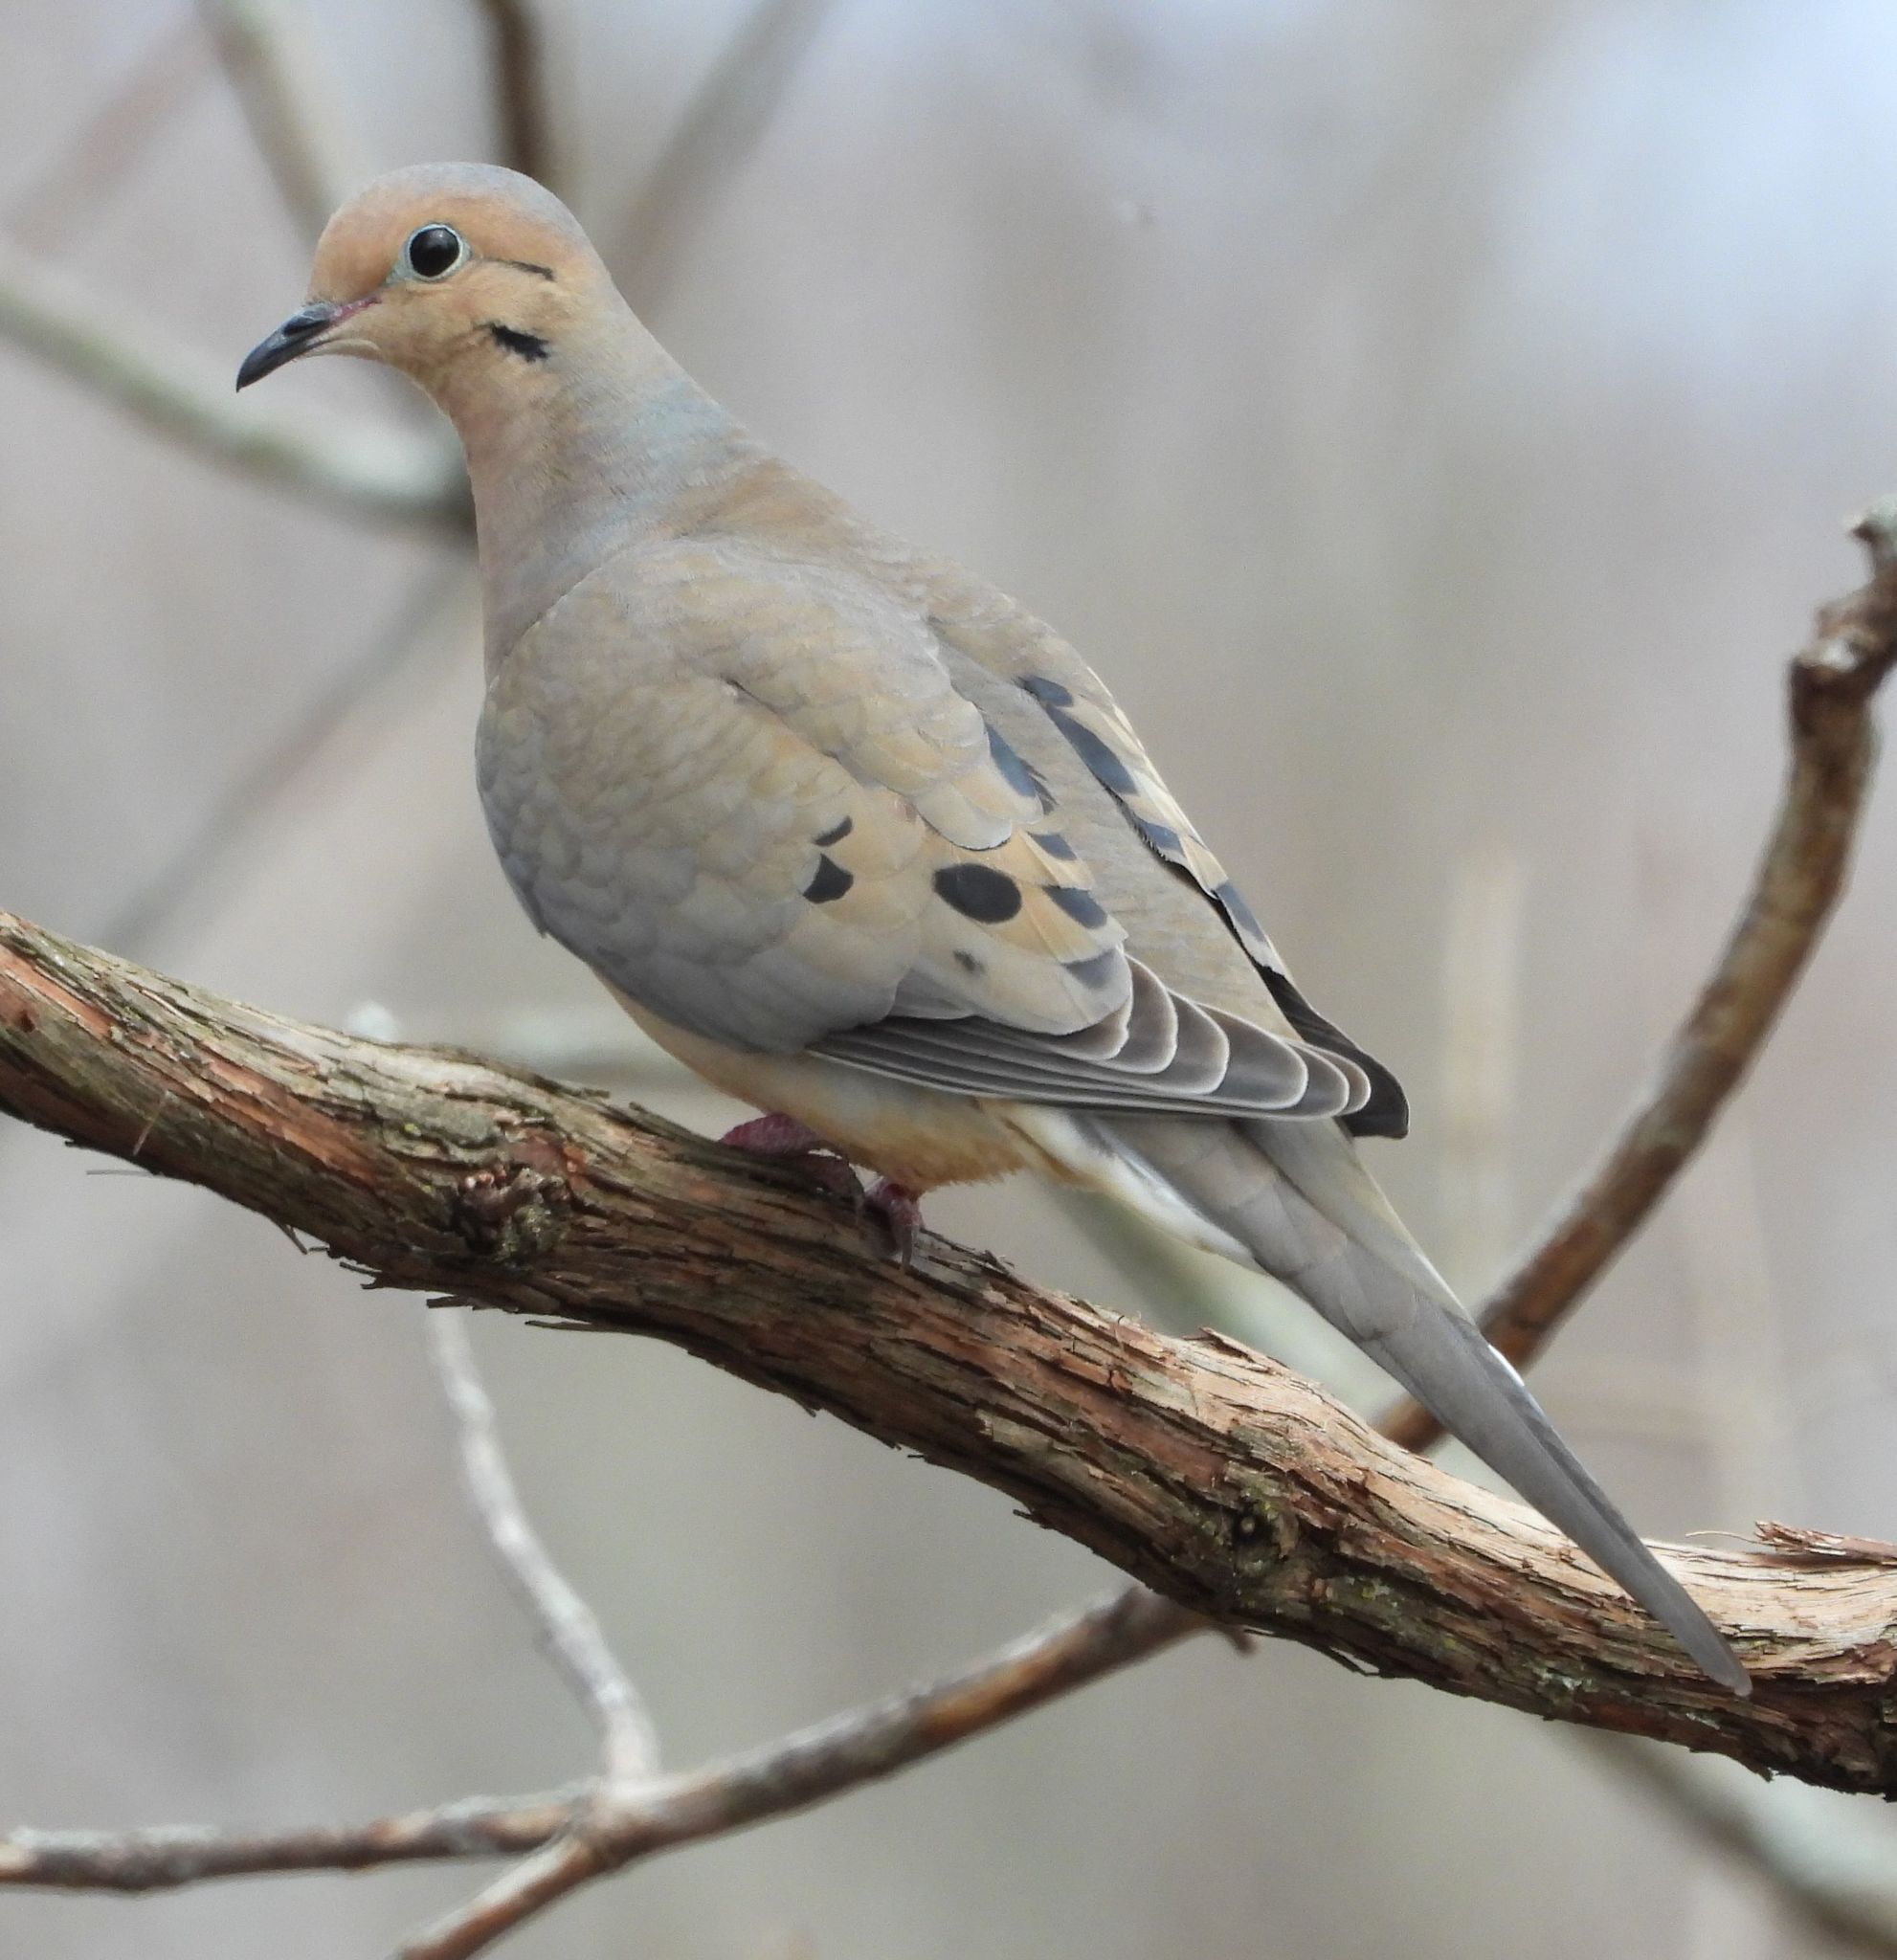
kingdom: Animalia
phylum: Chordata
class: Aves
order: Columbiformes
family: Columbidae
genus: Zenaida
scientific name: Zenaida macroura
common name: Mourning dove
